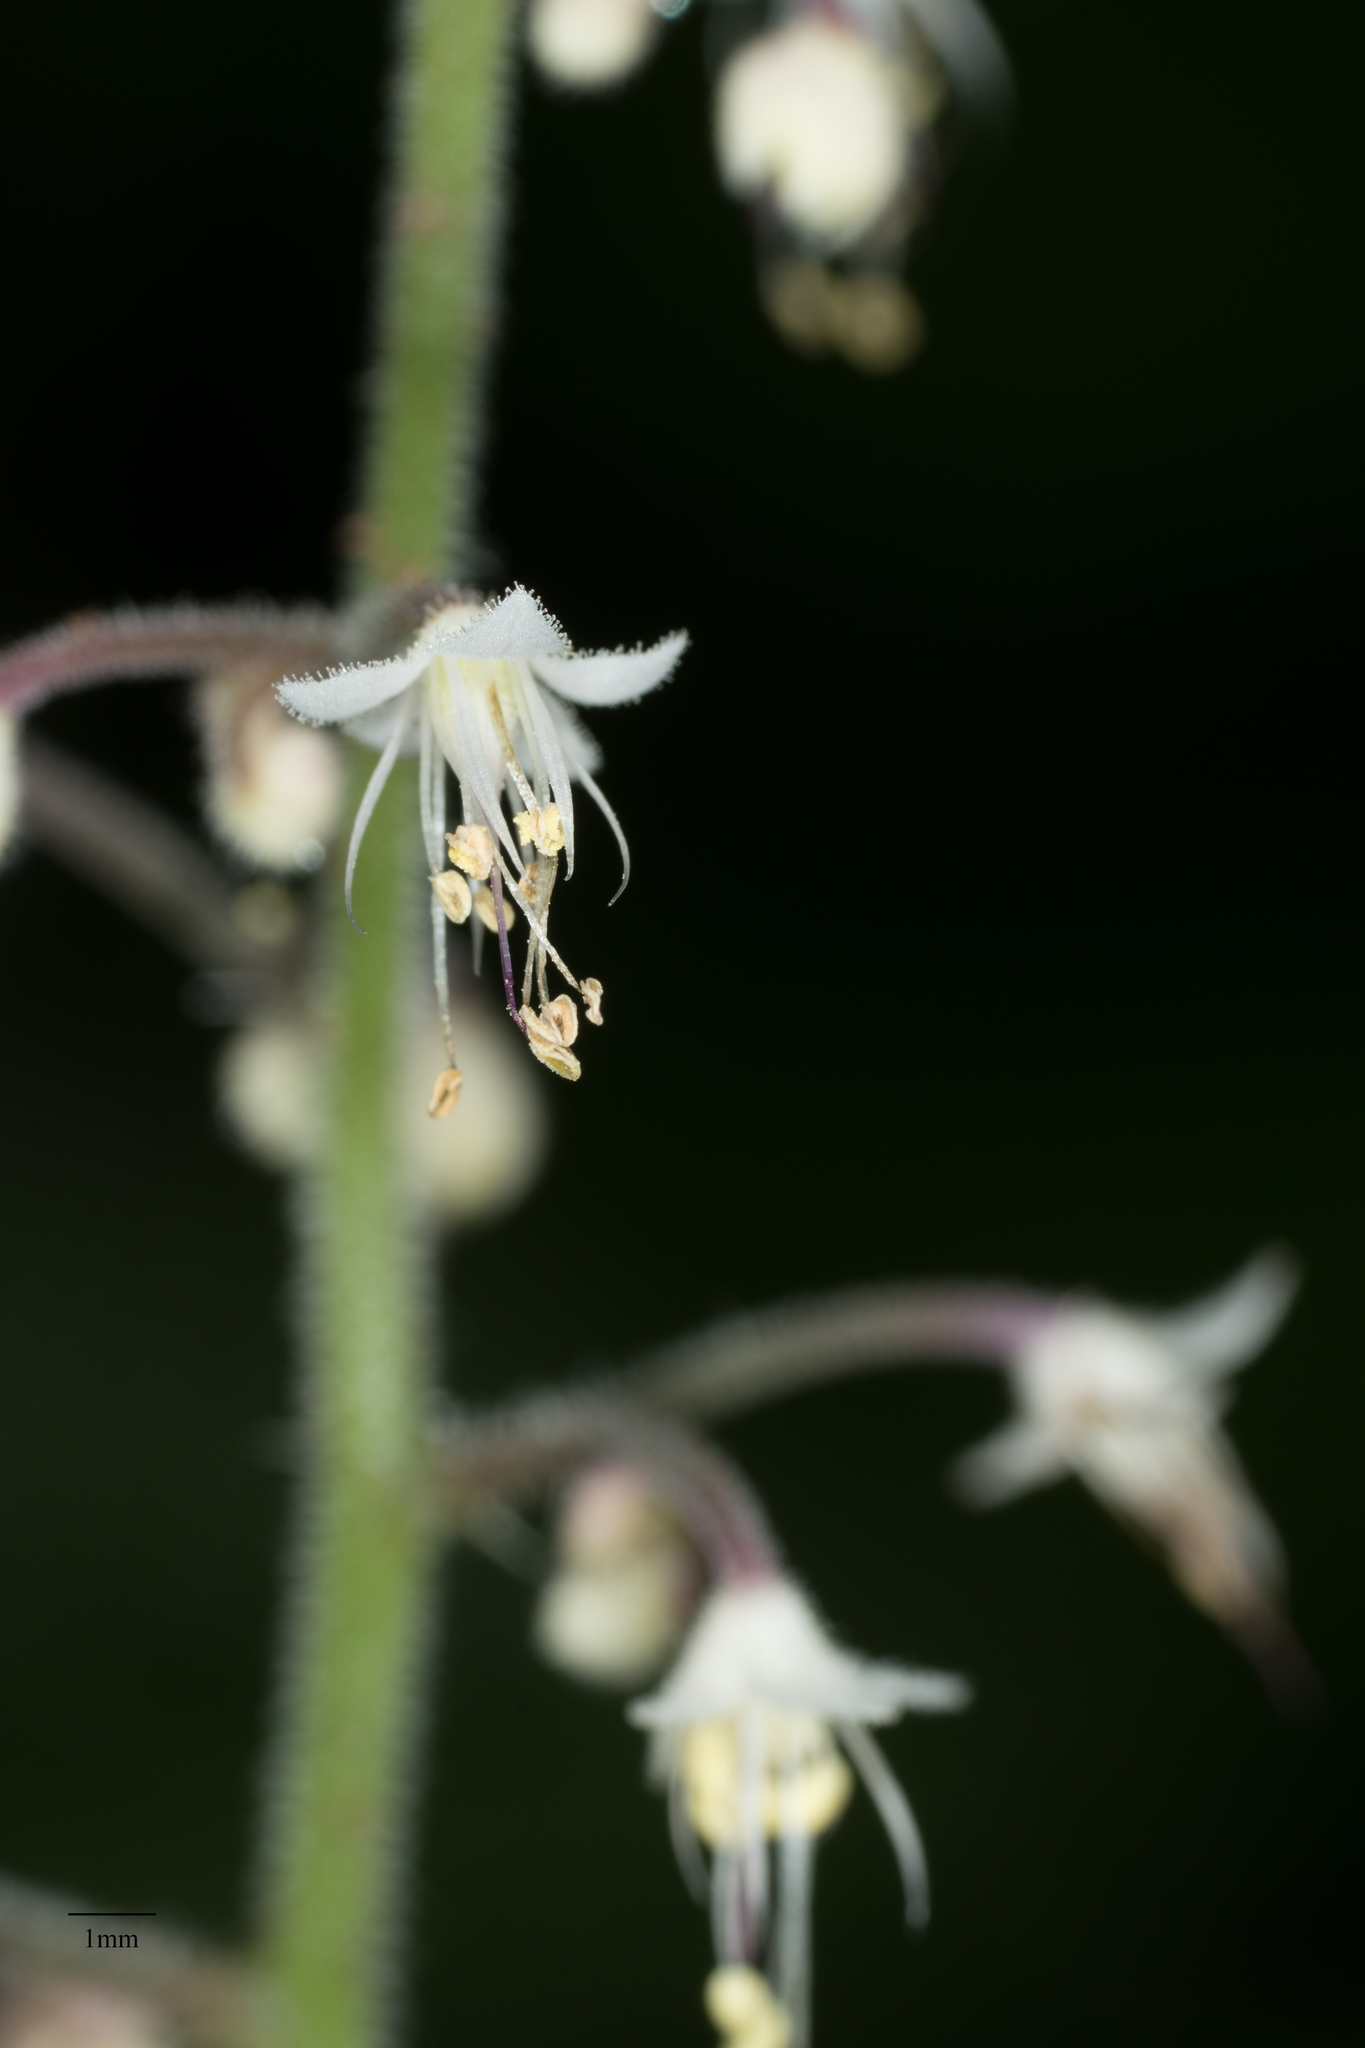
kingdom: Plantae
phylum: Tracheophyta
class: Magnoliopsida
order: Saxifragales
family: Saxifragaceae
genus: Tiarella
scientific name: Tiarella trifoliata
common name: Sugar-scoop
